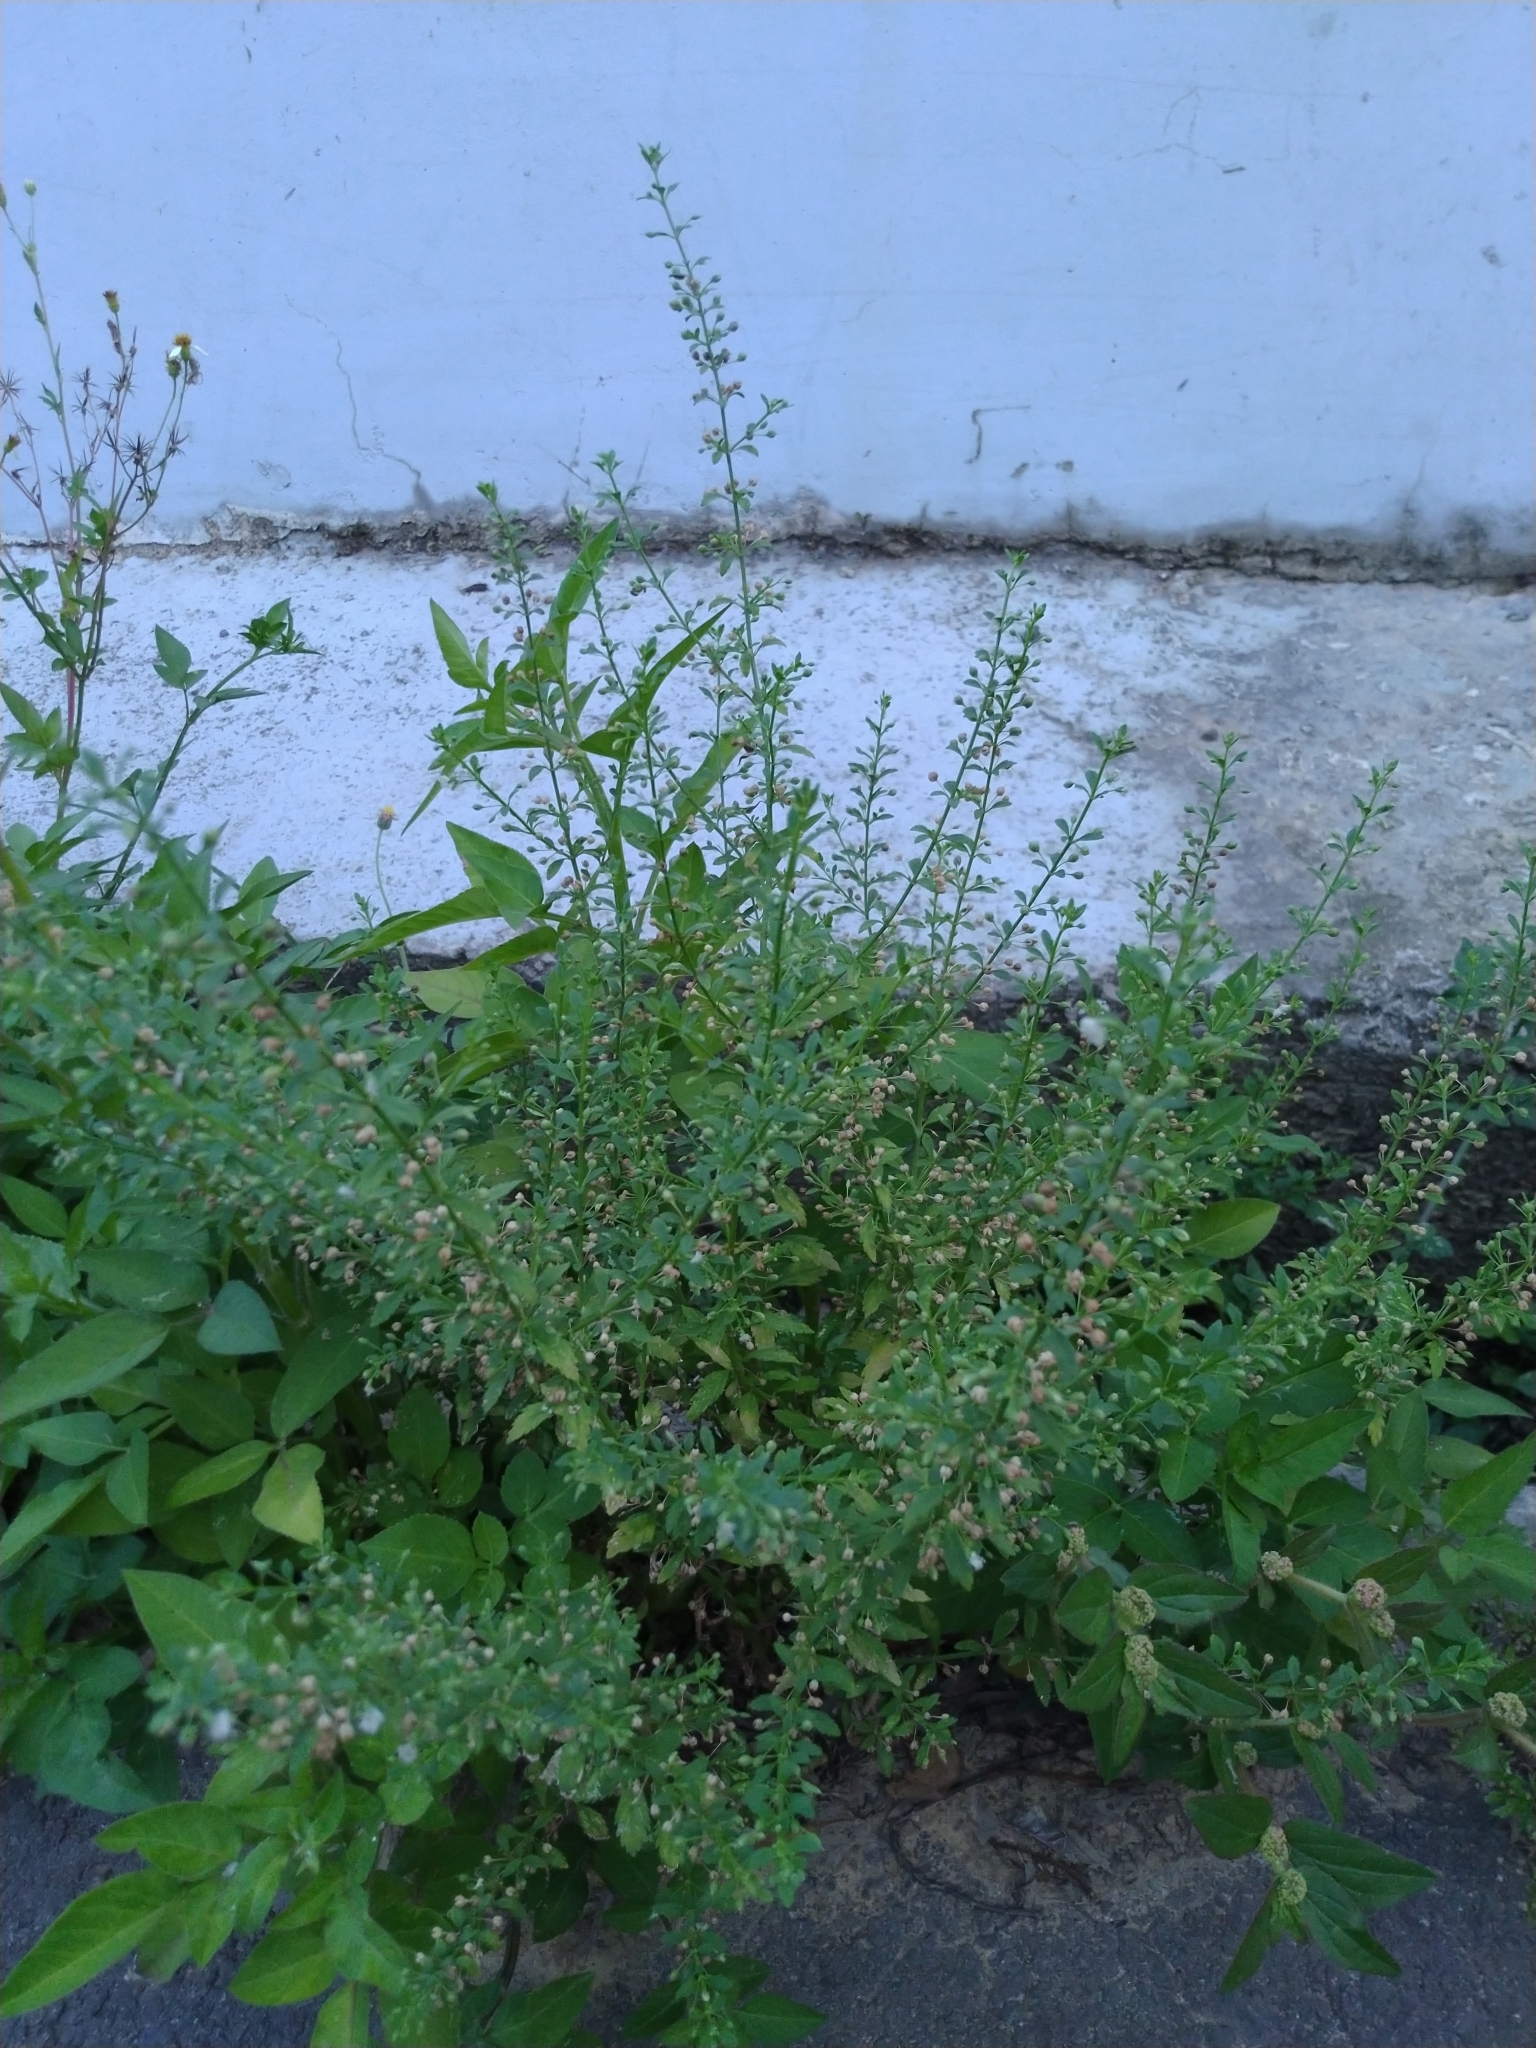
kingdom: Plantae
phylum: Tracheophyta
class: Magnoliopsida
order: Lamiales
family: Plantaginaceae
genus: Scoparia
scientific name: Scoparia dulcis
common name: Scoparia-weed
